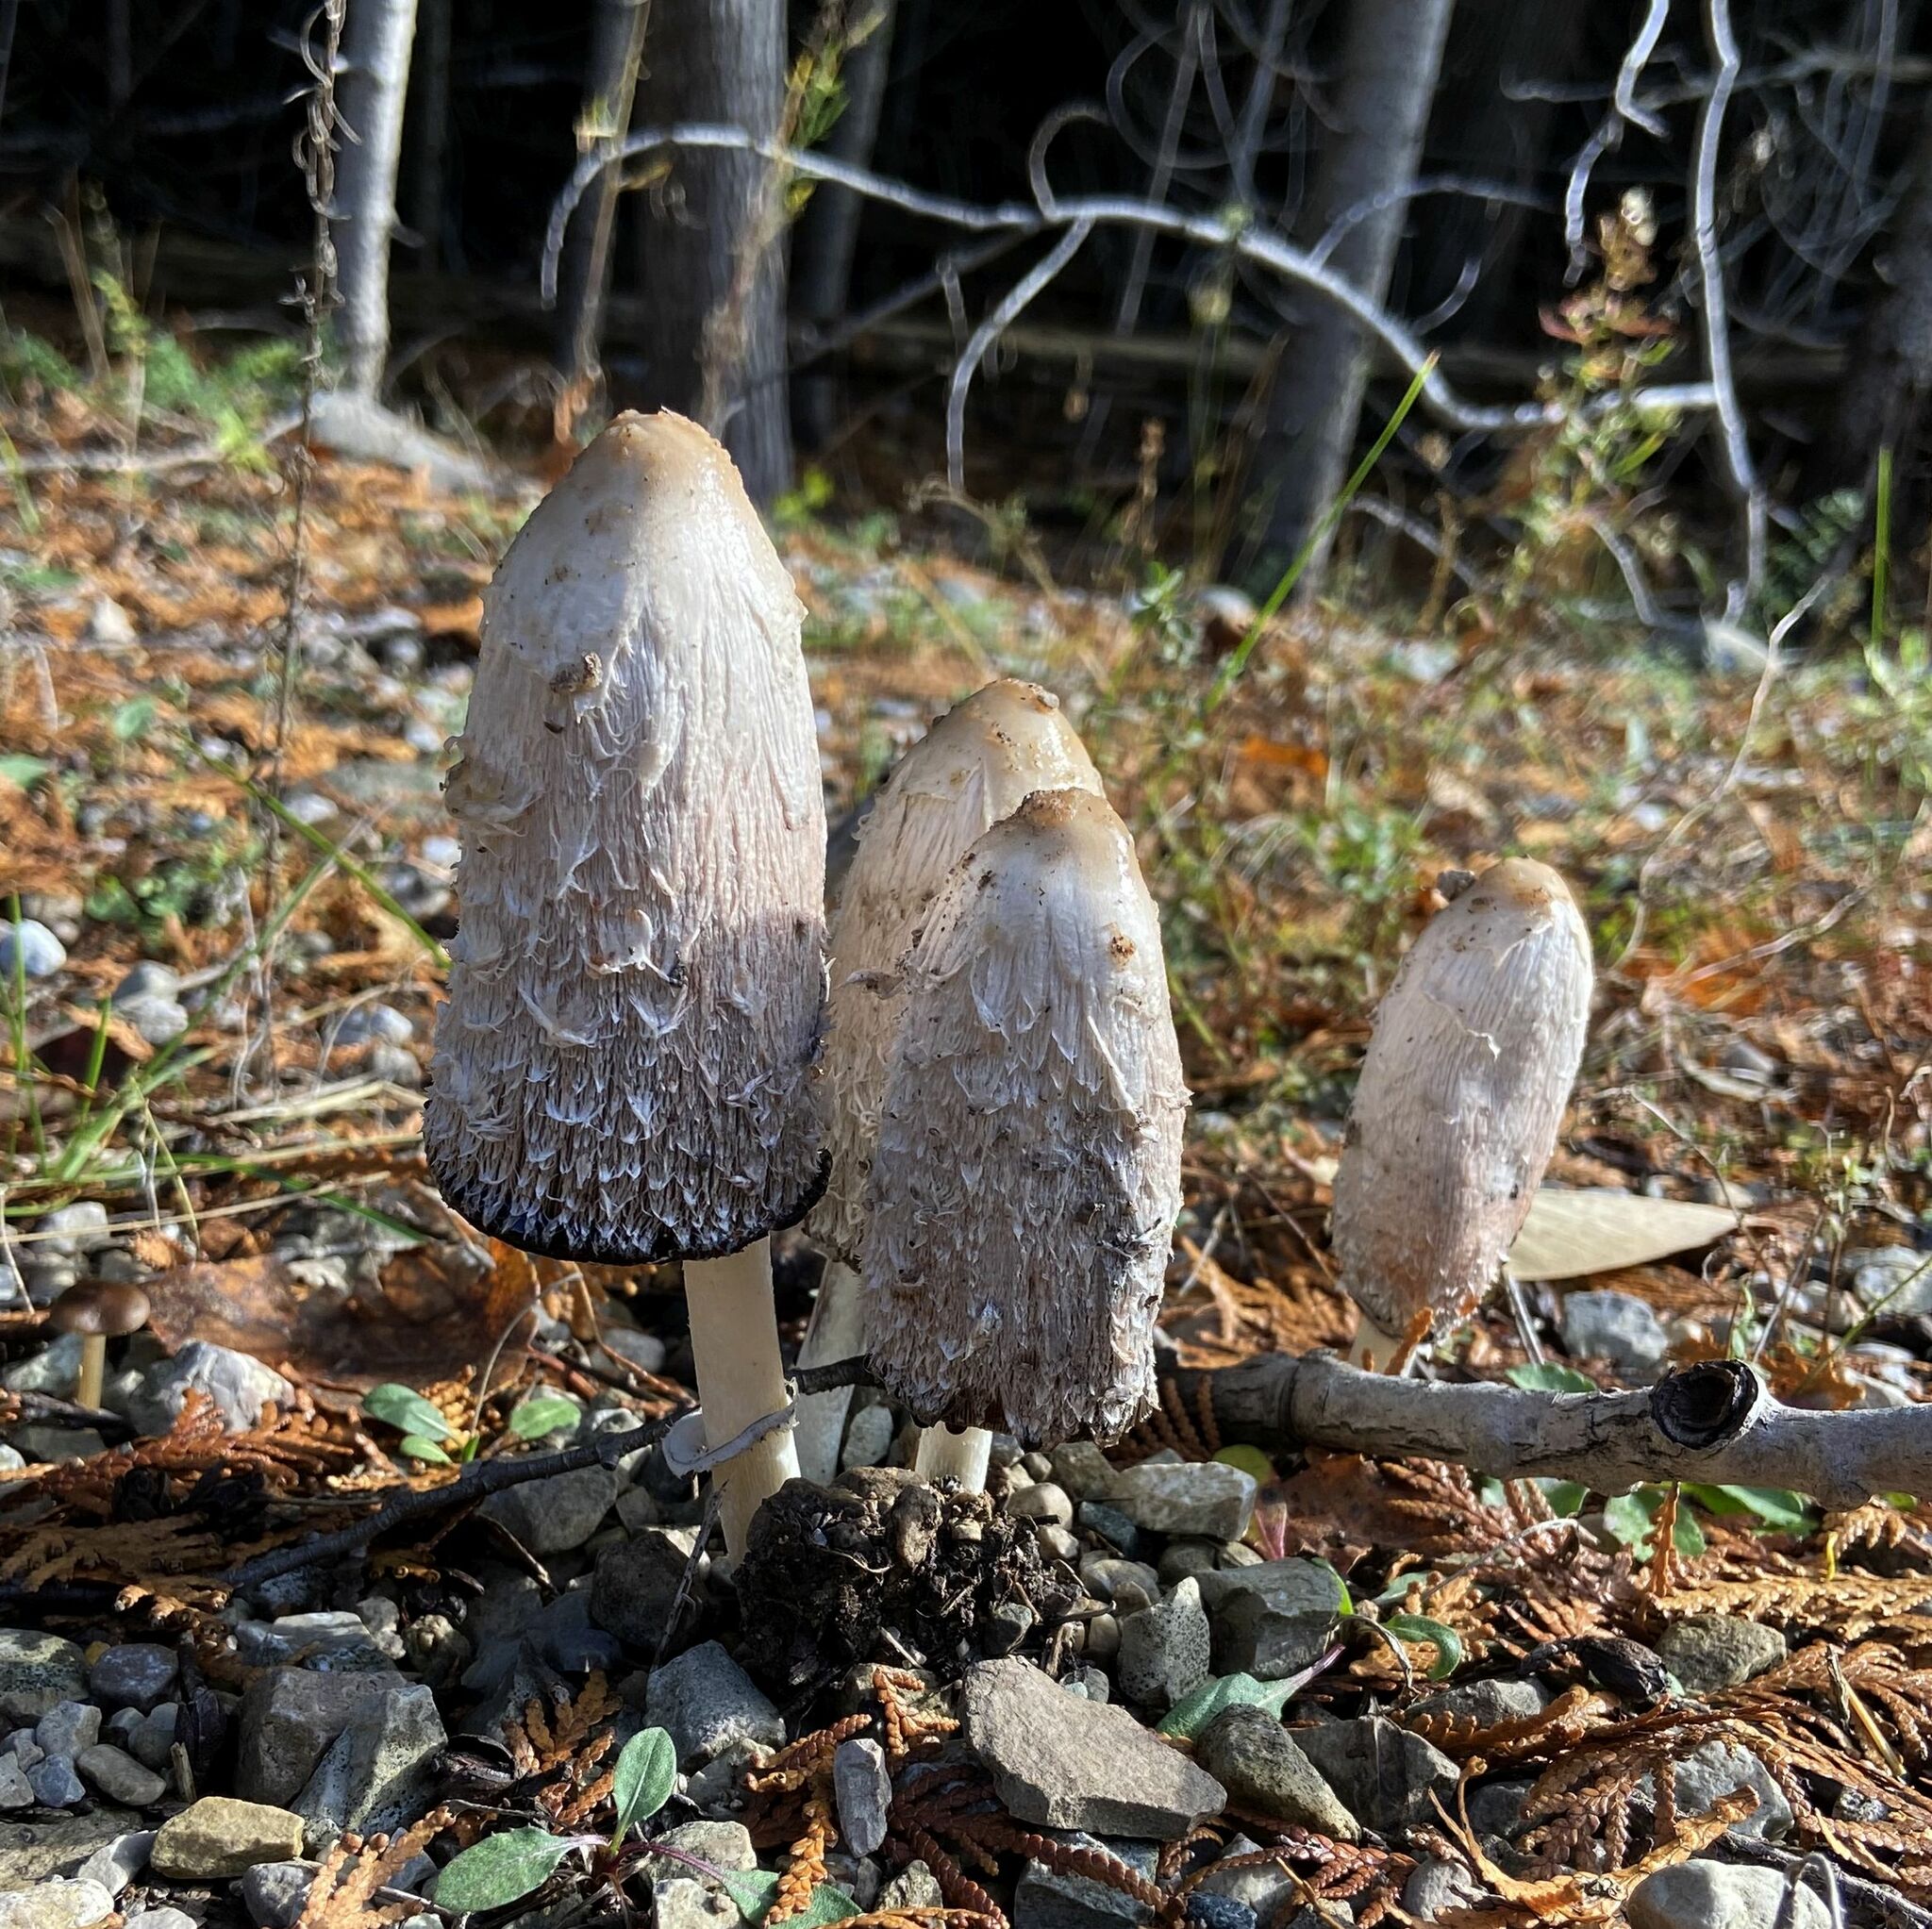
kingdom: Fungi
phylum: Basidiomycota
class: Agaricomycetes
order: Agaricales
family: Agaricaceae
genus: Coprinus
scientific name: Coprinus comatus
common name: Lawyer's wig
